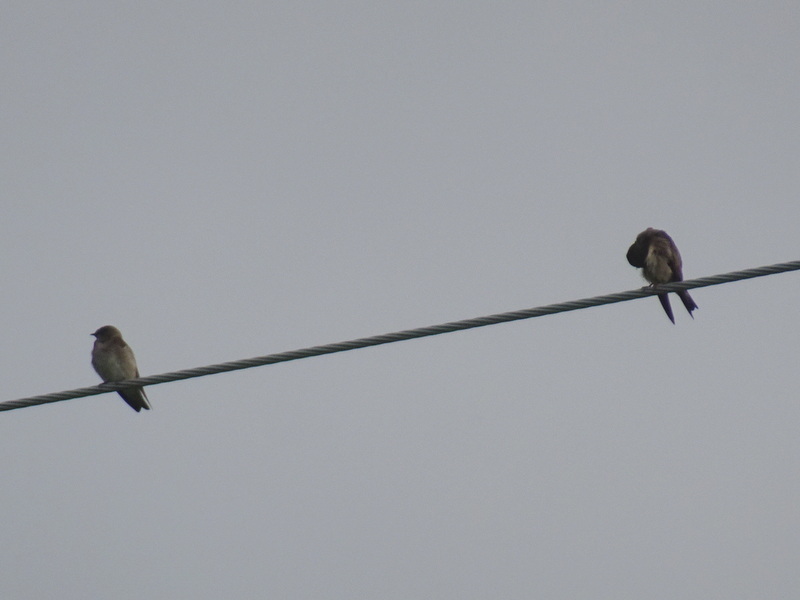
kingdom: Animalia
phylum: Chordata
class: Aves
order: Passeriformes
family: Hirundinidae
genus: Stelgidopteryx
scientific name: Stelgidopteryx serripennis
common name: Northern rough-winged swallow
